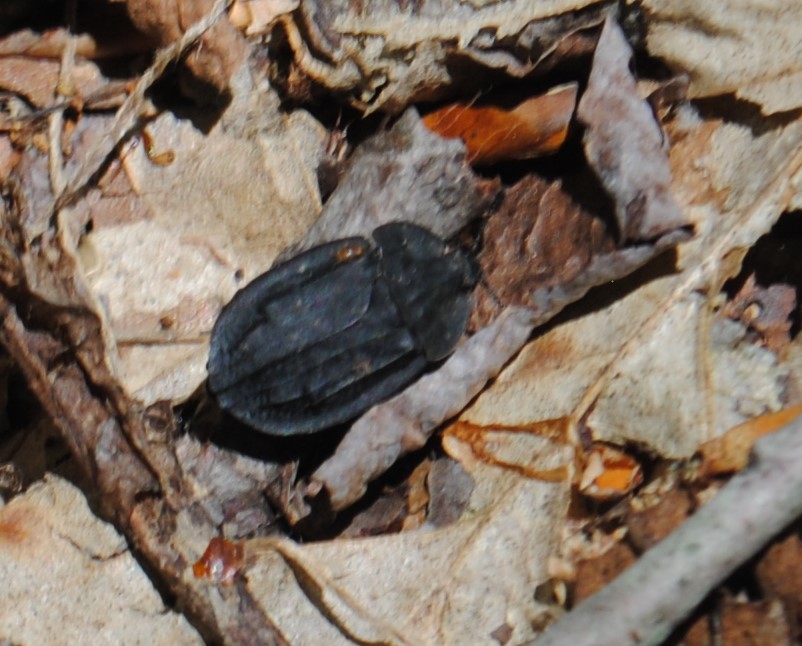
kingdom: Animalia
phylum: Arthropoda
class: Insecta
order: Coleoptera
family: Staphylinidae
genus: Oiceoptoma
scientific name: Oiceoptoma inaequale
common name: Ridged carrion beetle
